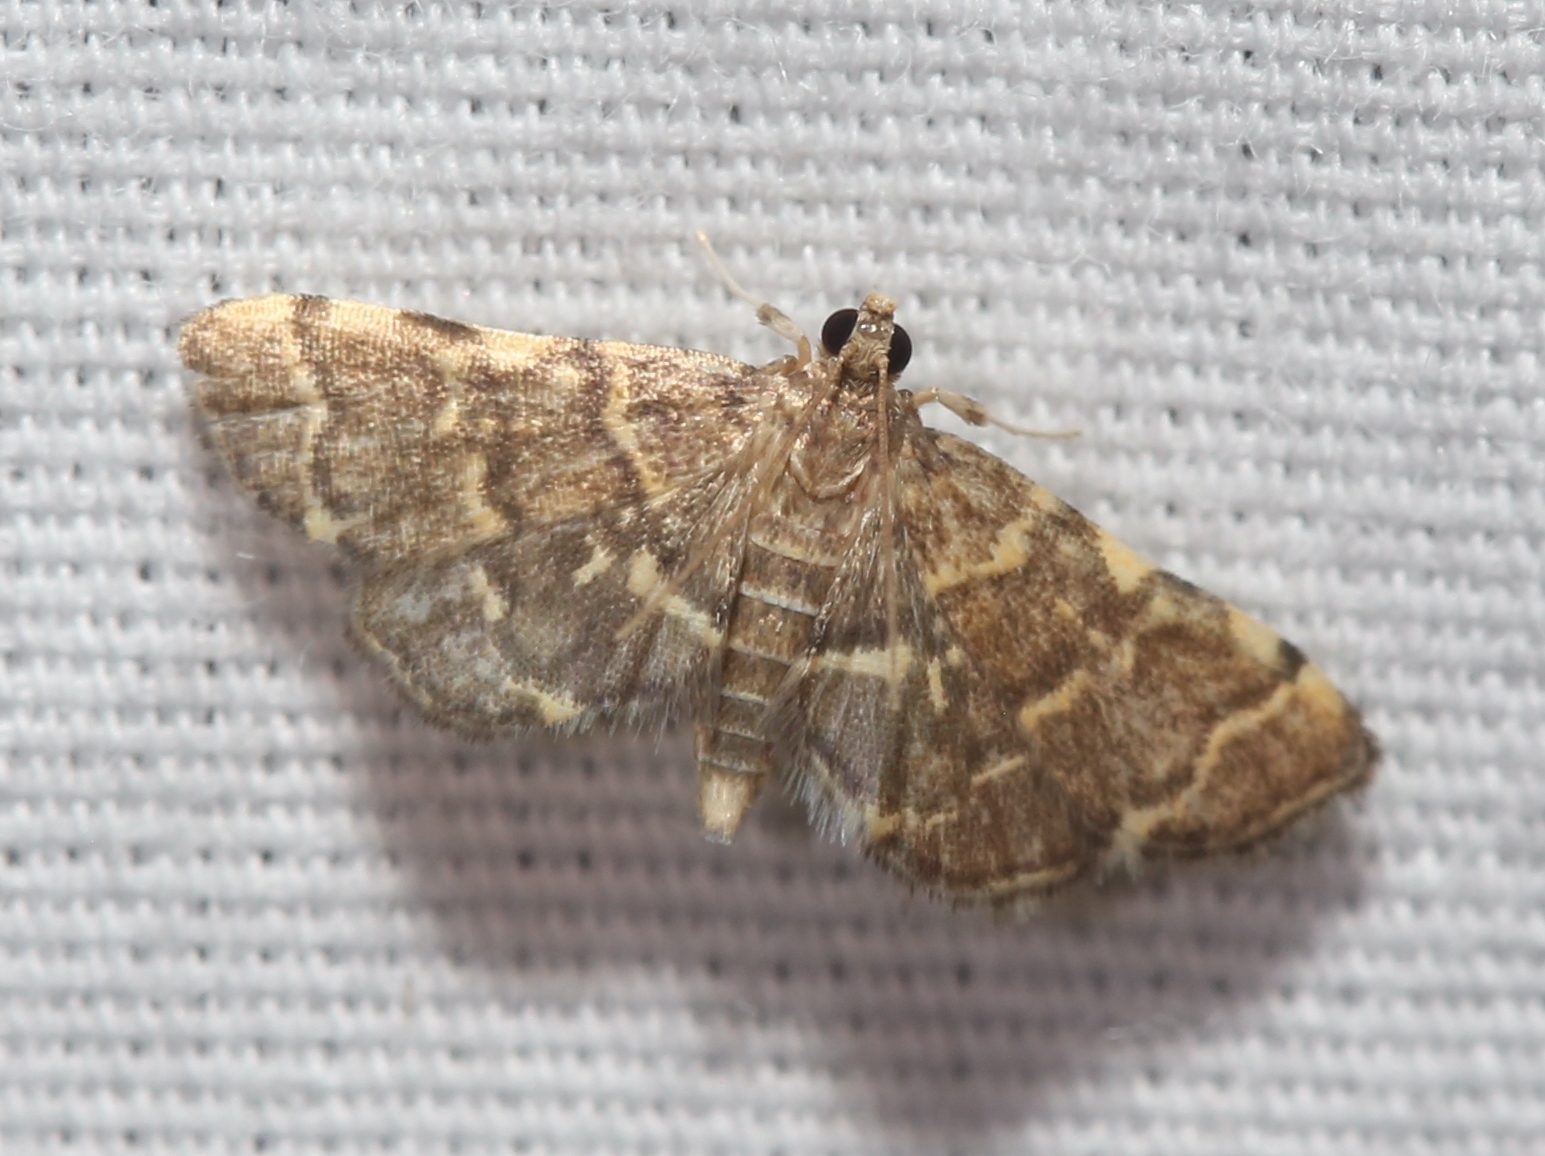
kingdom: Animalia
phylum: Arthropoda
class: Insecta
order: Lepidoptera
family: Crambidae
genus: Anageshna
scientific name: Anageshna primordialis
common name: Yellow-spotted webworm moth
